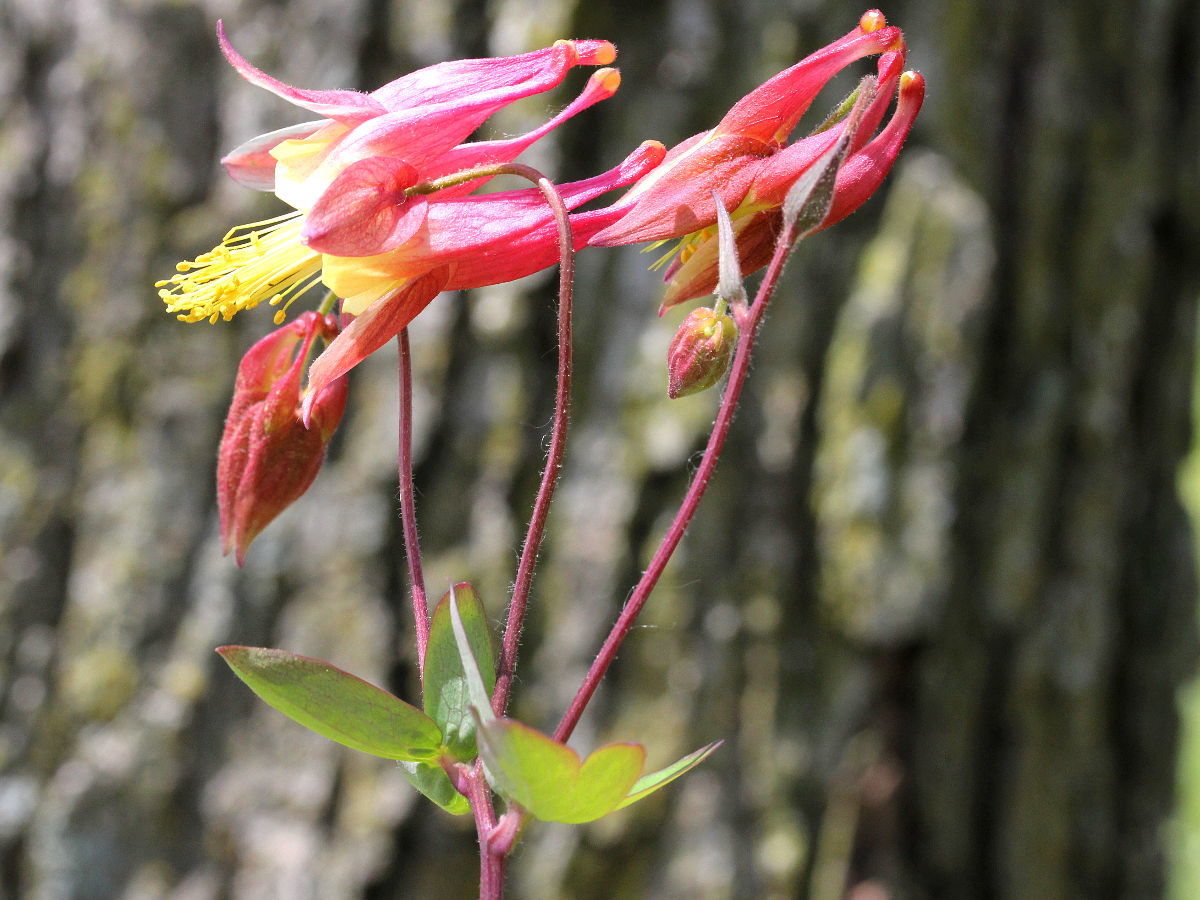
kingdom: Plantae
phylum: Tracheophyta
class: Magnoliopsida
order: Ranunculales
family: Ranunculaceae
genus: Aquilegia
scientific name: Aquilegia canadensis
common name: American columbine
